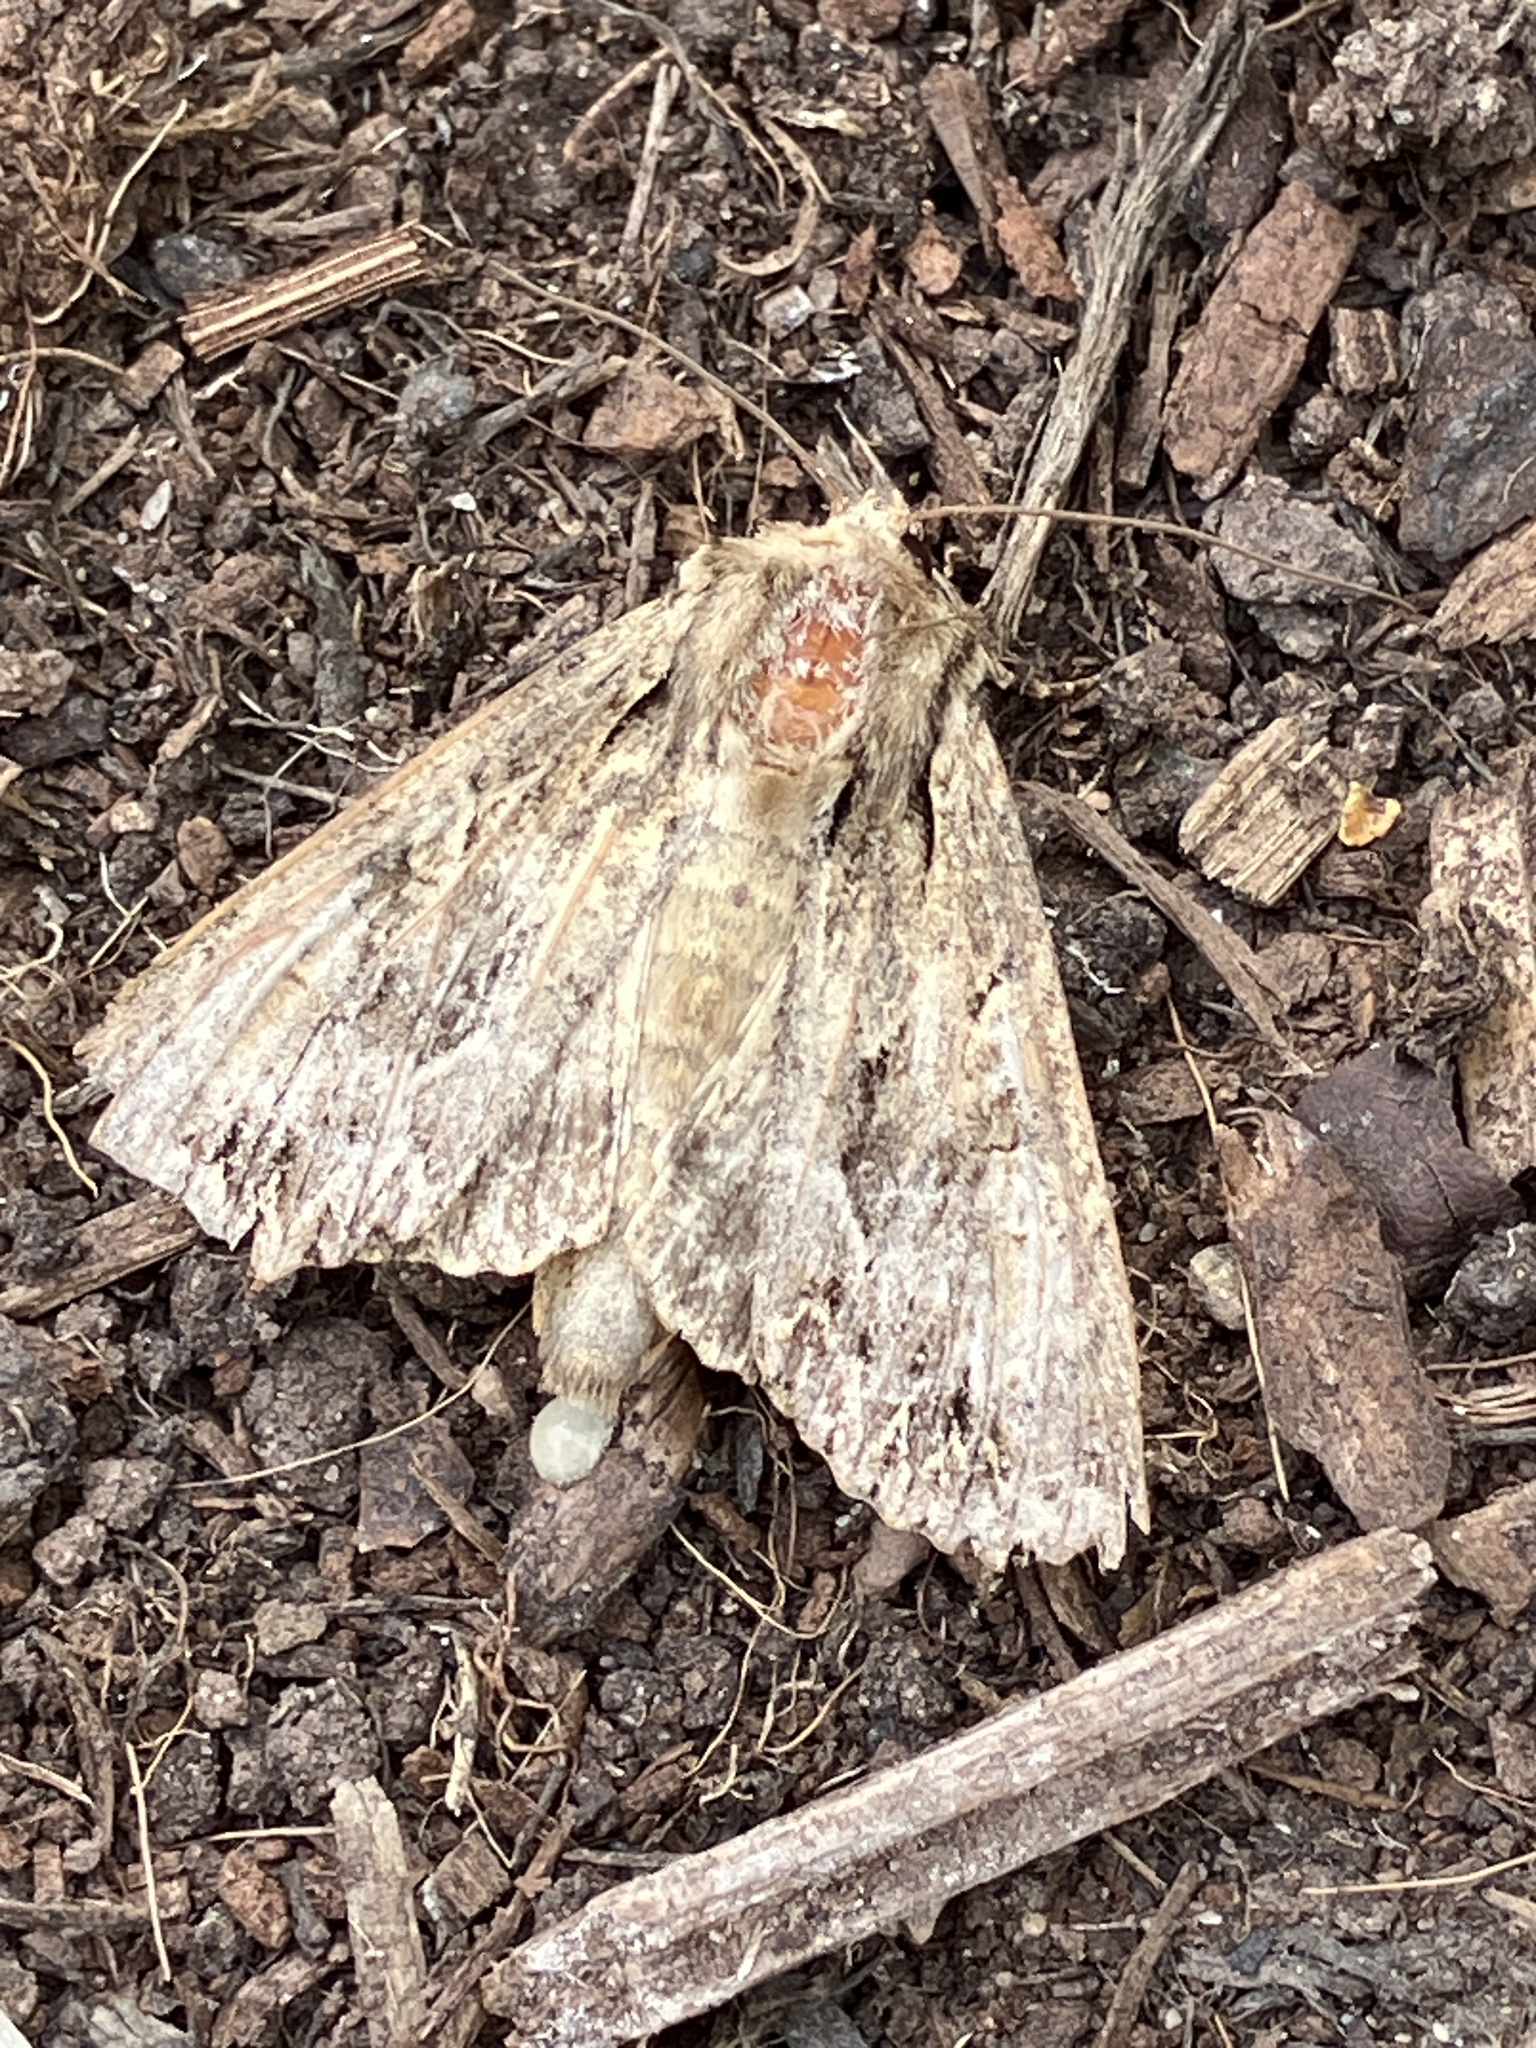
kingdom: Animalia
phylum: Arthropoda
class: Insecta
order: Lepidoptera
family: Noctuidae
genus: Apamea
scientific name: Apamea monoglypha
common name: Dark arches
